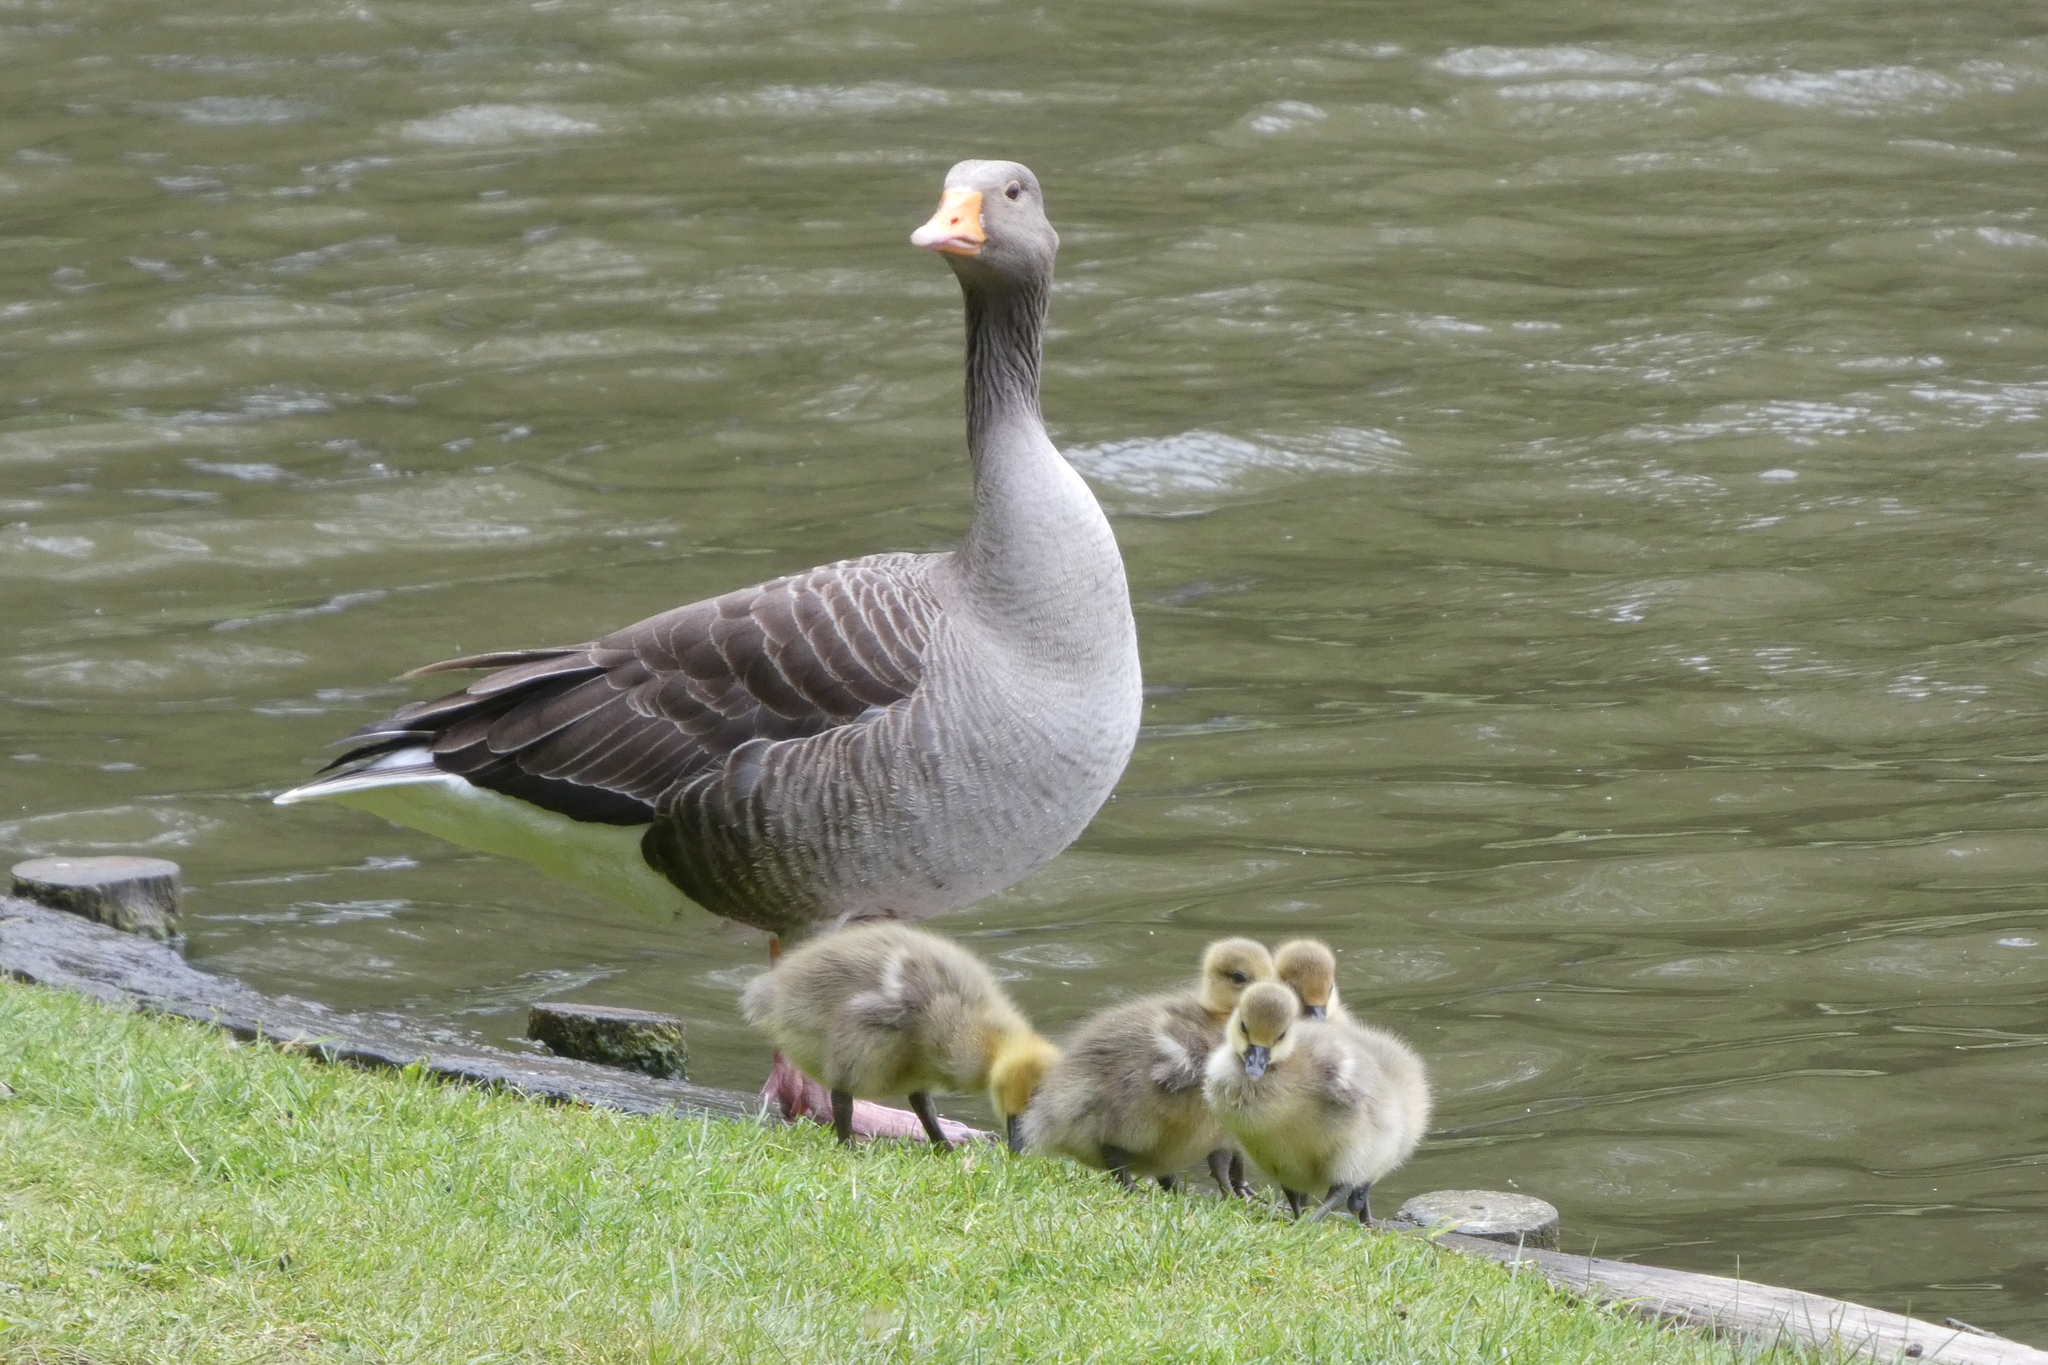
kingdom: Animalia
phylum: Chordata
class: Aves
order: Anseriformes
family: Anatidae
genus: Anser
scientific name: Anser anser
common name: Greylag goose
